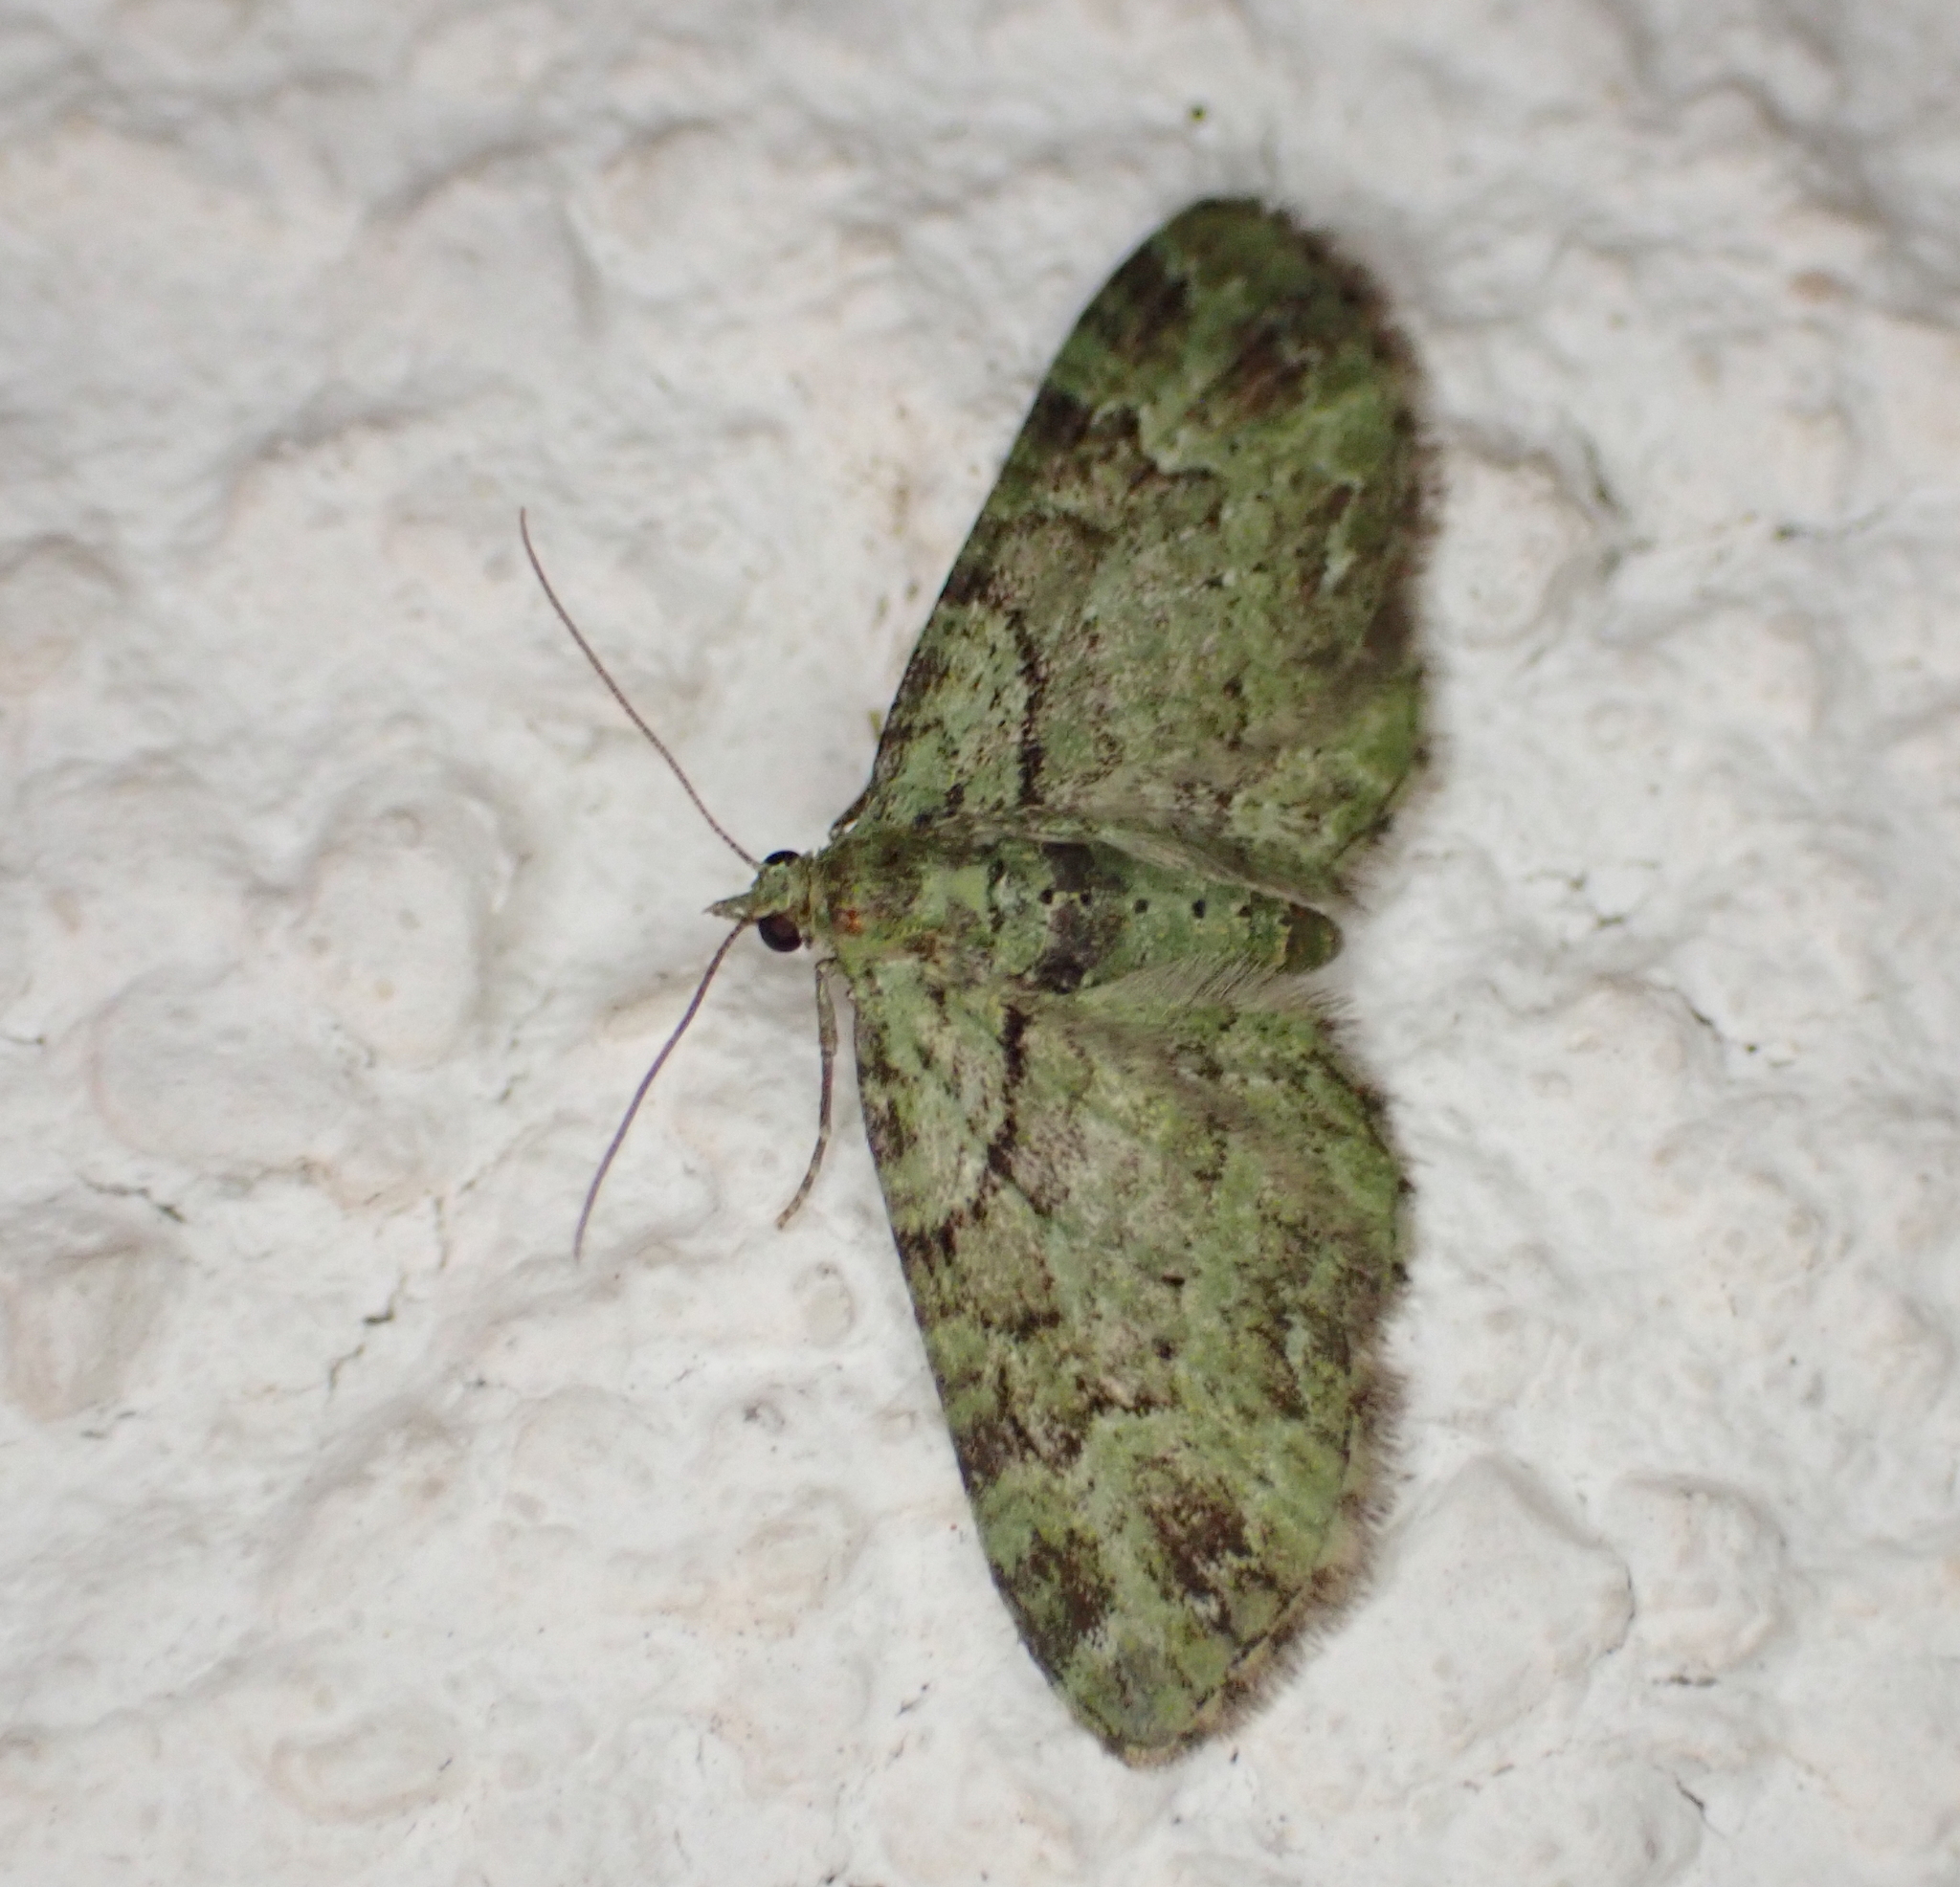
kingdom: Animalia
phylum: Arthropoda
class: Insecta
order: Lepidoptera
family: Geometridae
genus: Pasiphila
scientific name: Pasiphila rectangulata
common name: Green pug
